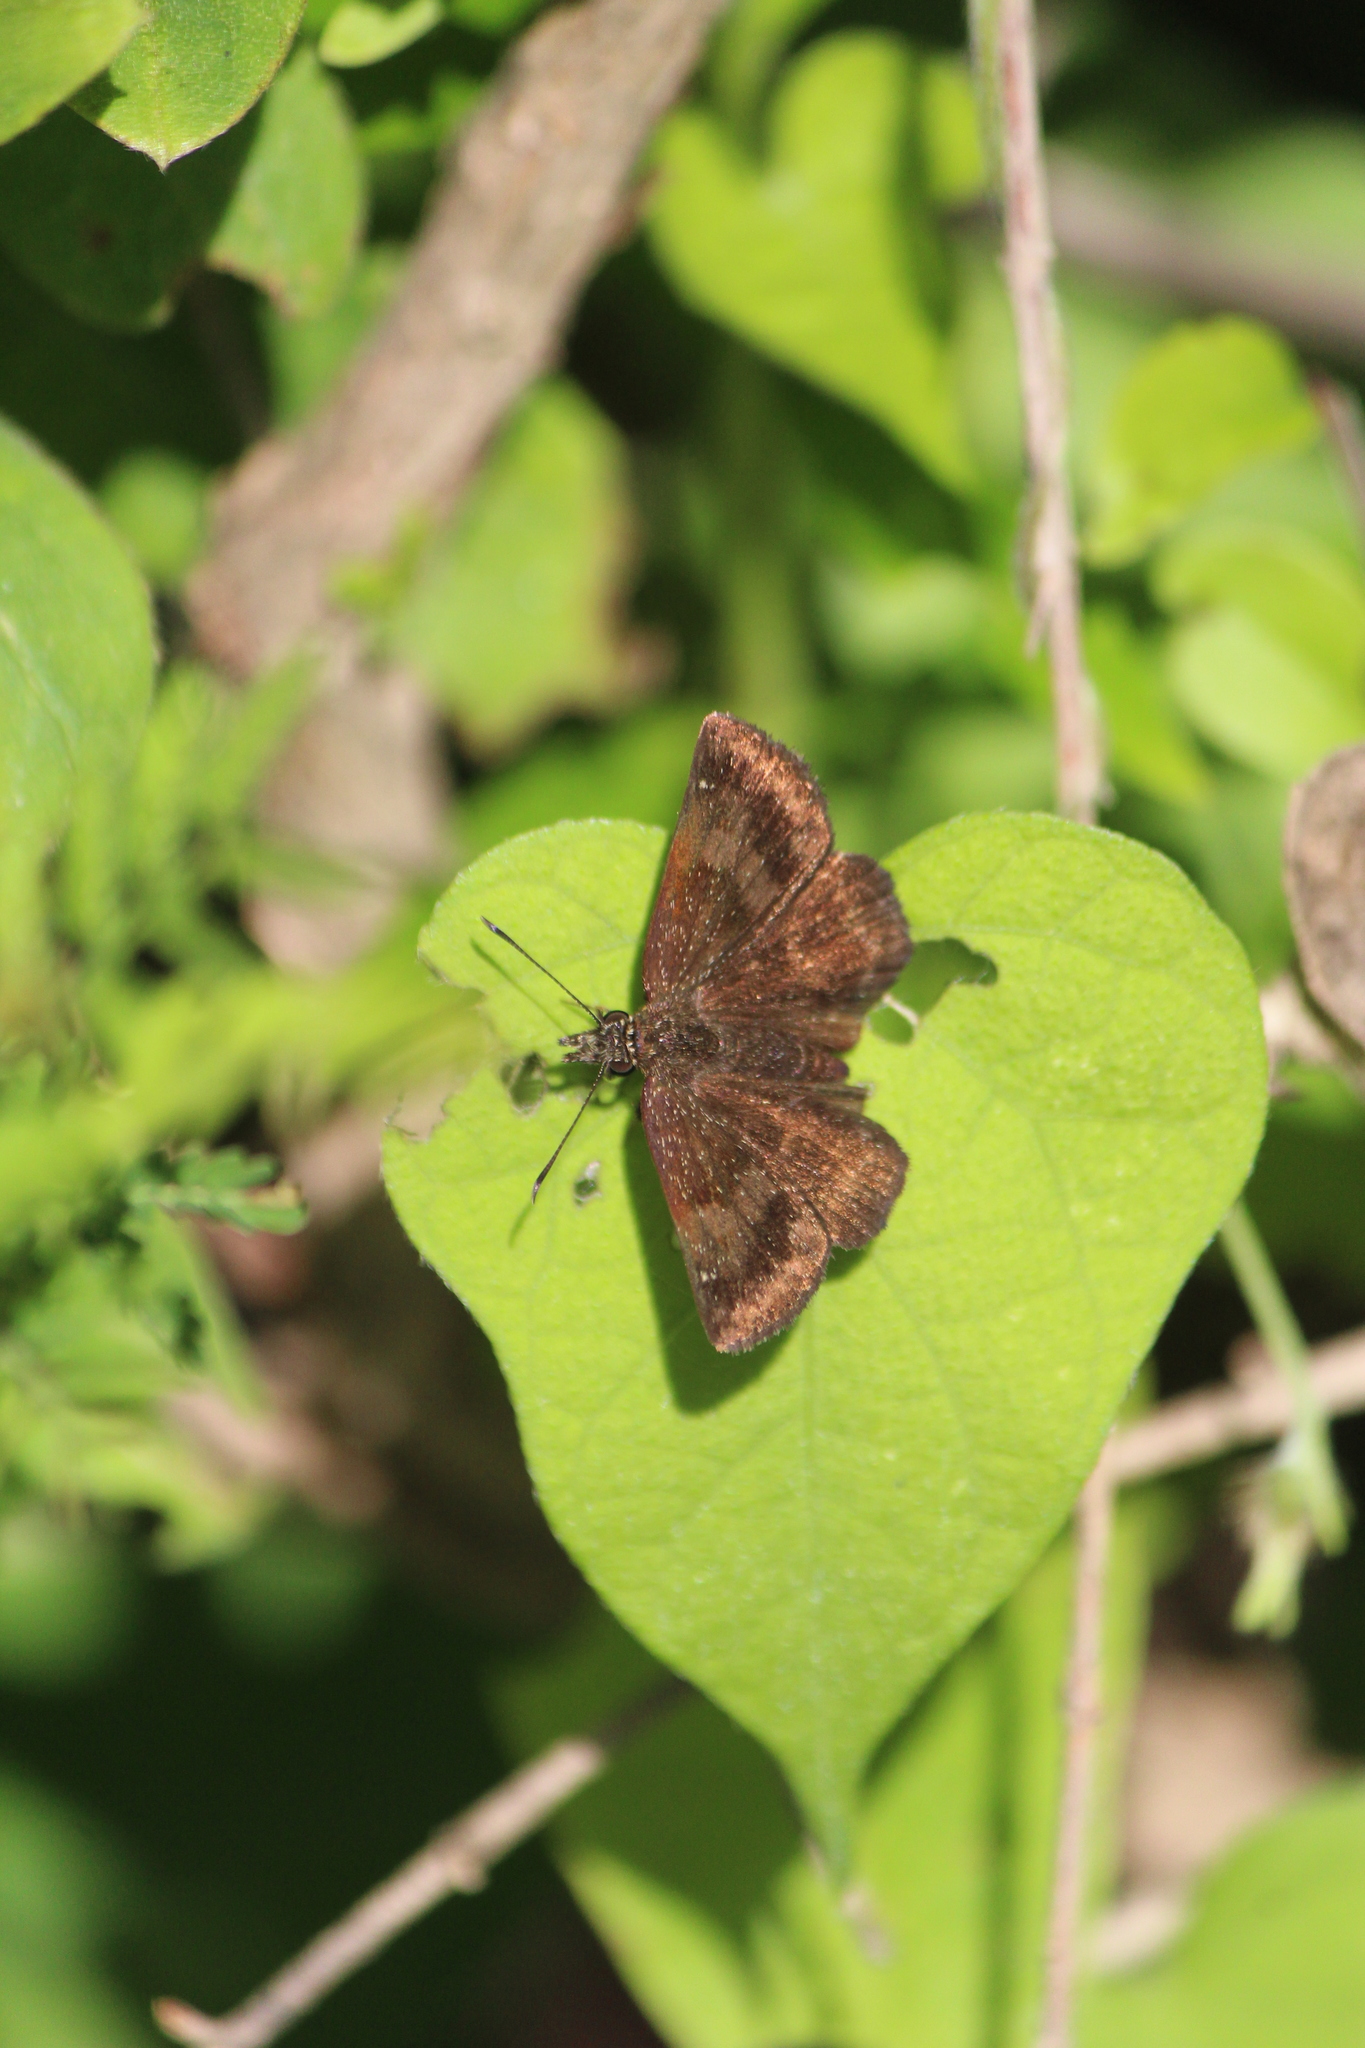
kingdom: Animalia
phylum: Arthropoda
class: Insecta
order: Lepidoptera
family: Hesperiidae
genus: Staphylus
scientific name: Staphylus vincula
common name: Mountain sootywing
